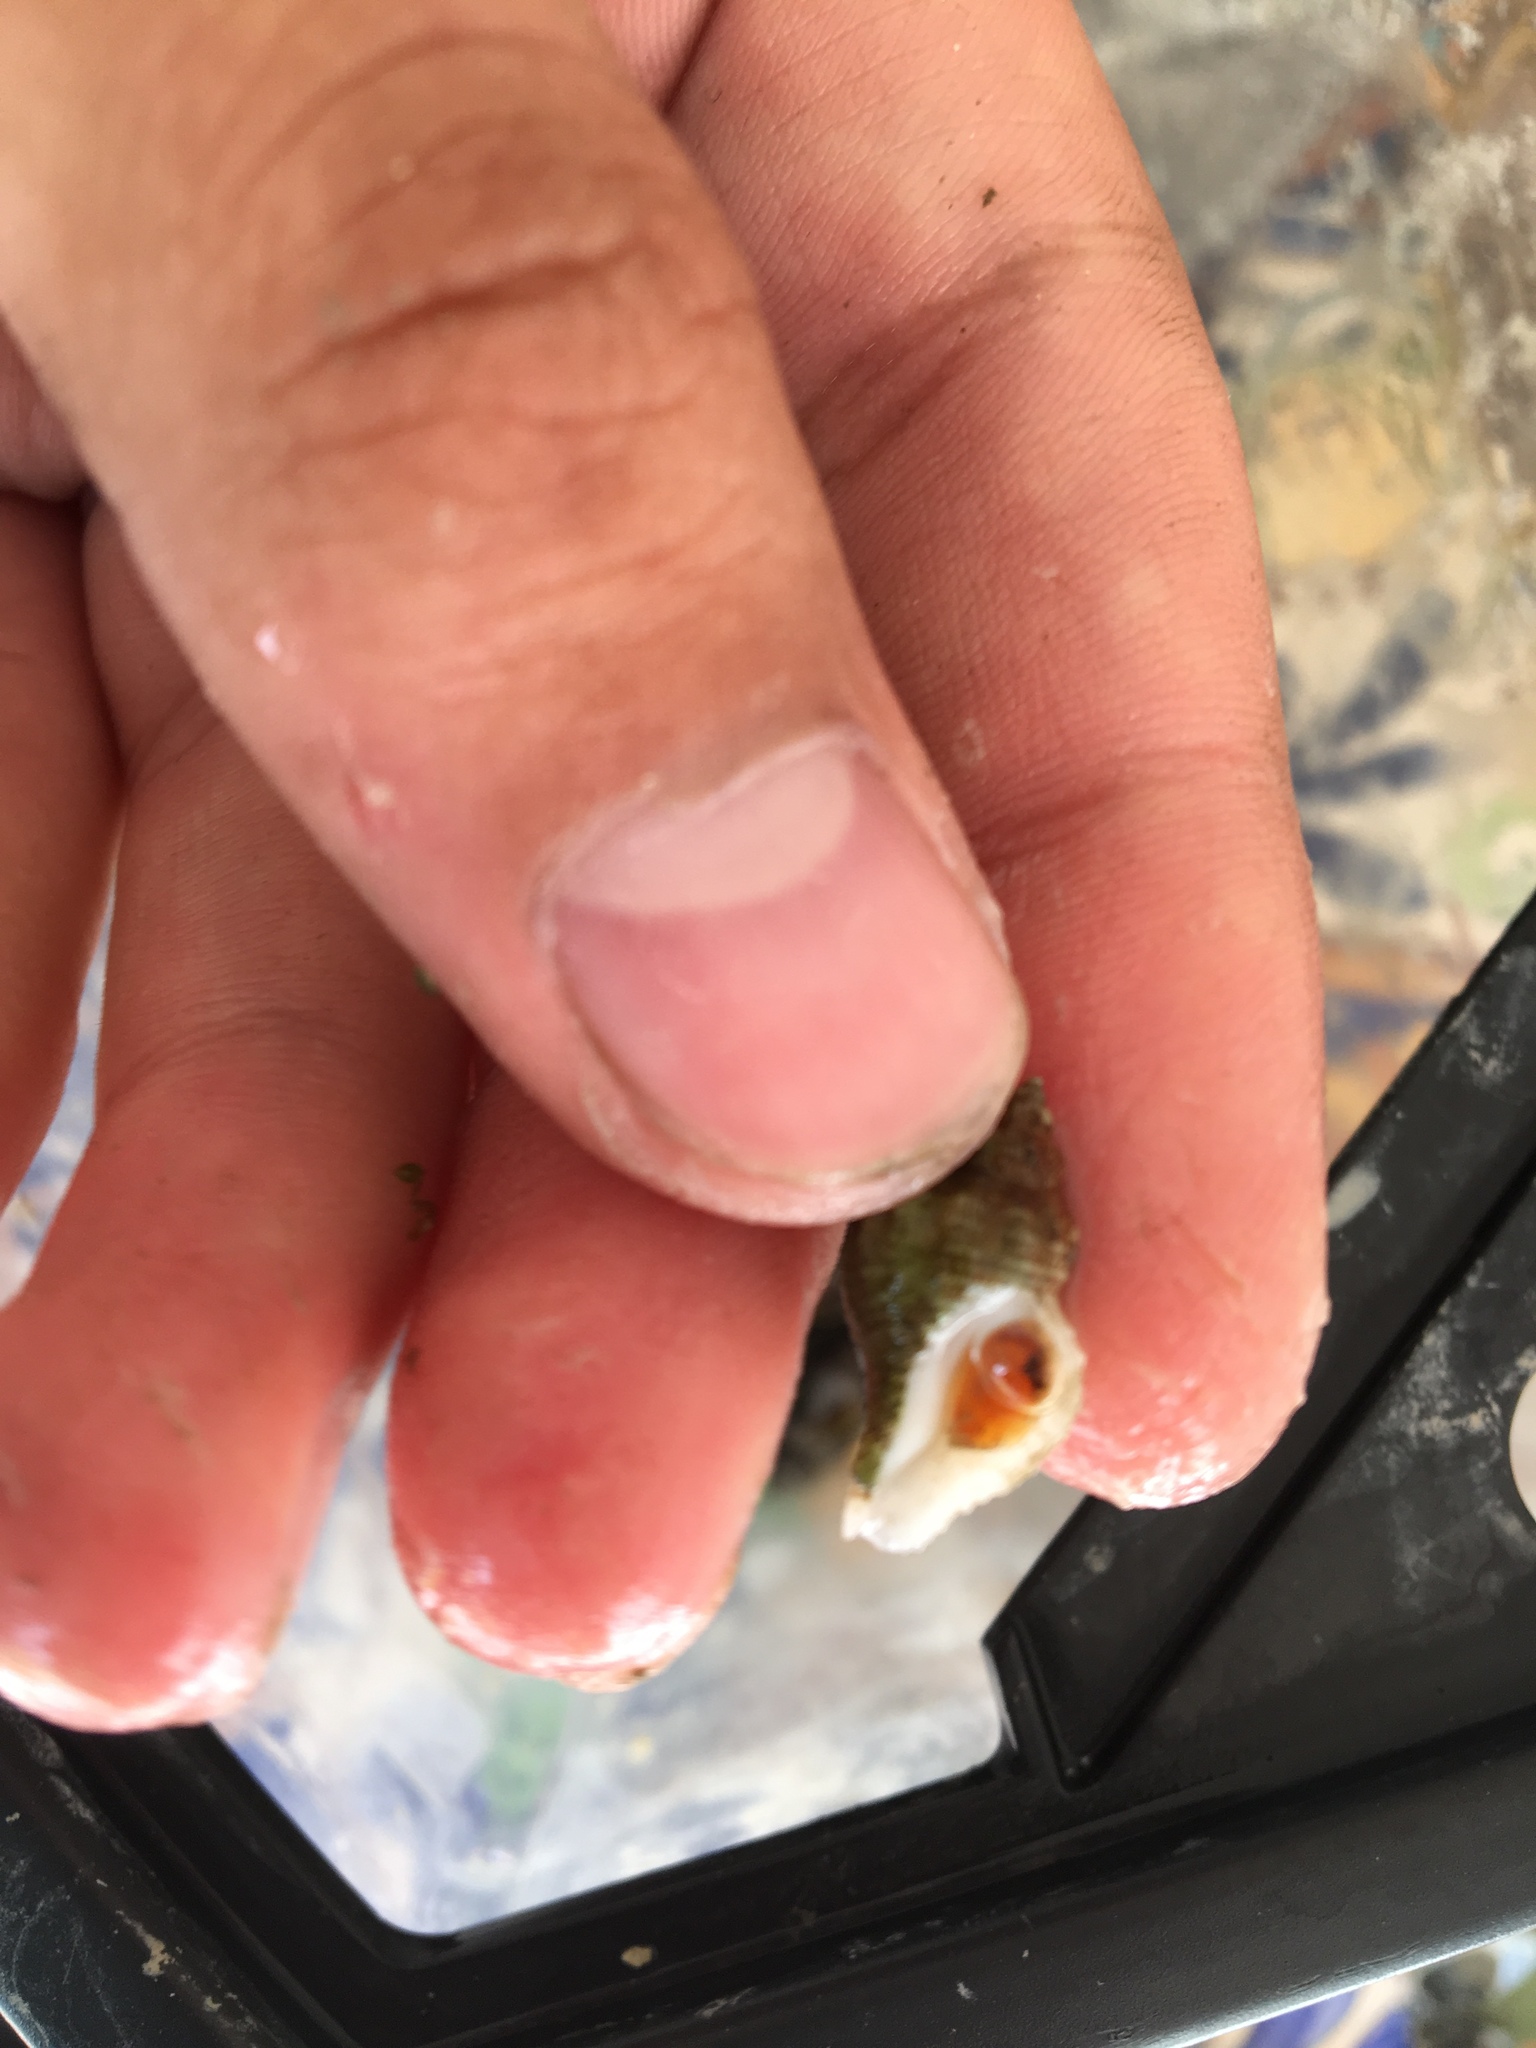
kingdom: Animalia
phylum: Mollusca
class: Gastropoda
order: Neogastropoda
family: Muricidae
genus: Urosalpinx
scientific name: Urosalpinx cinerea
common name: American sting winkle
